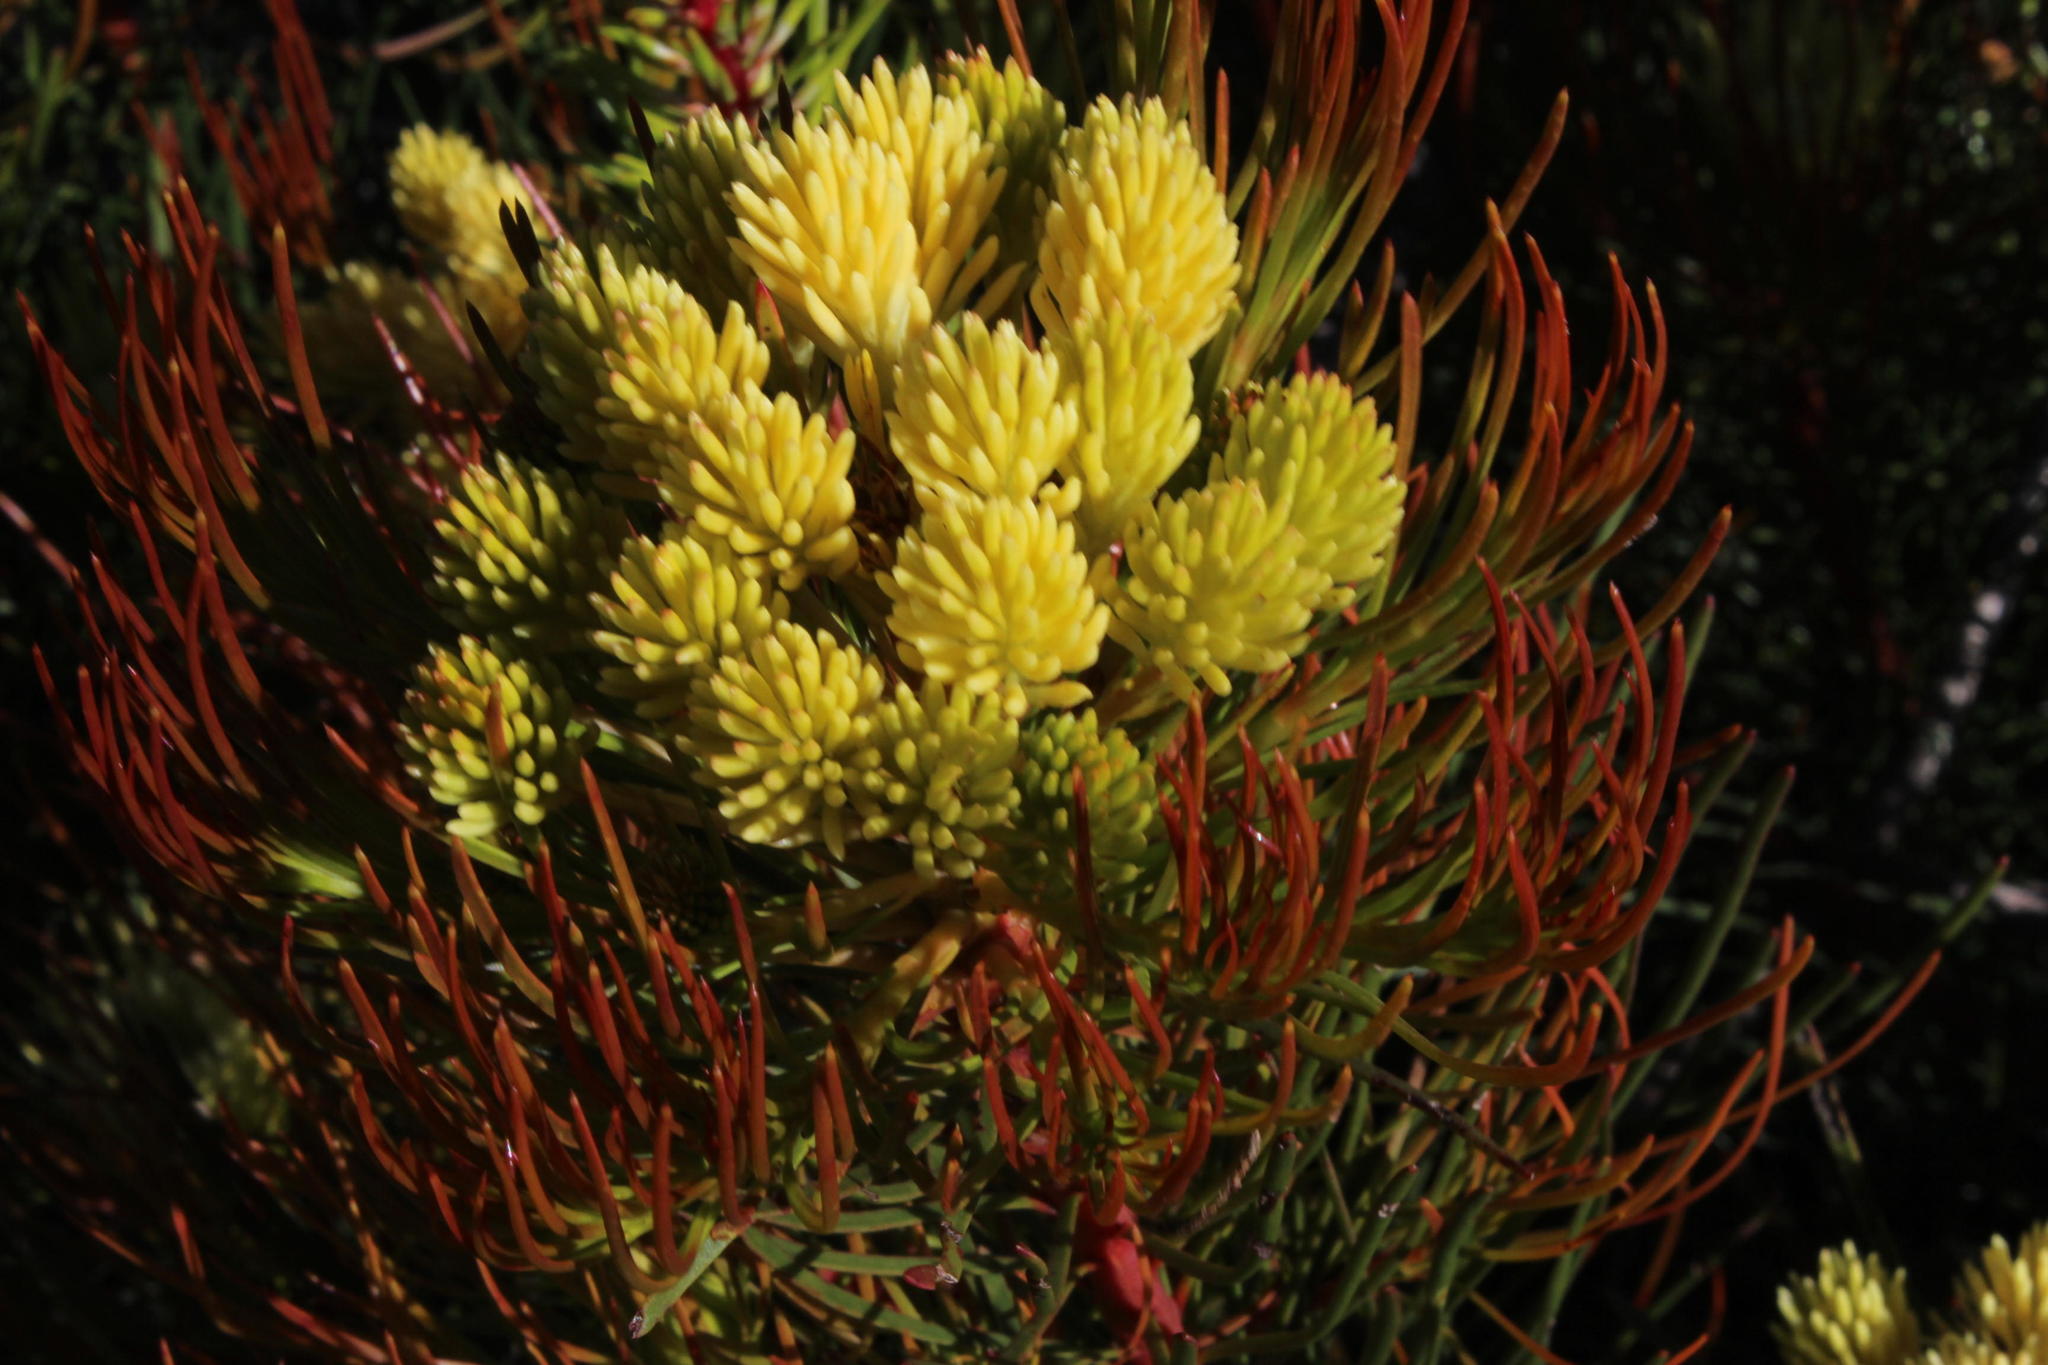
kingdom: Plantae
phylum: Tracheophyta
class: Magnoliopsida
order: Proteales
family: Proteaceae
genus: Aulax
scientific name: Aulax cancellata
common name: Channel-leaf featherbush
